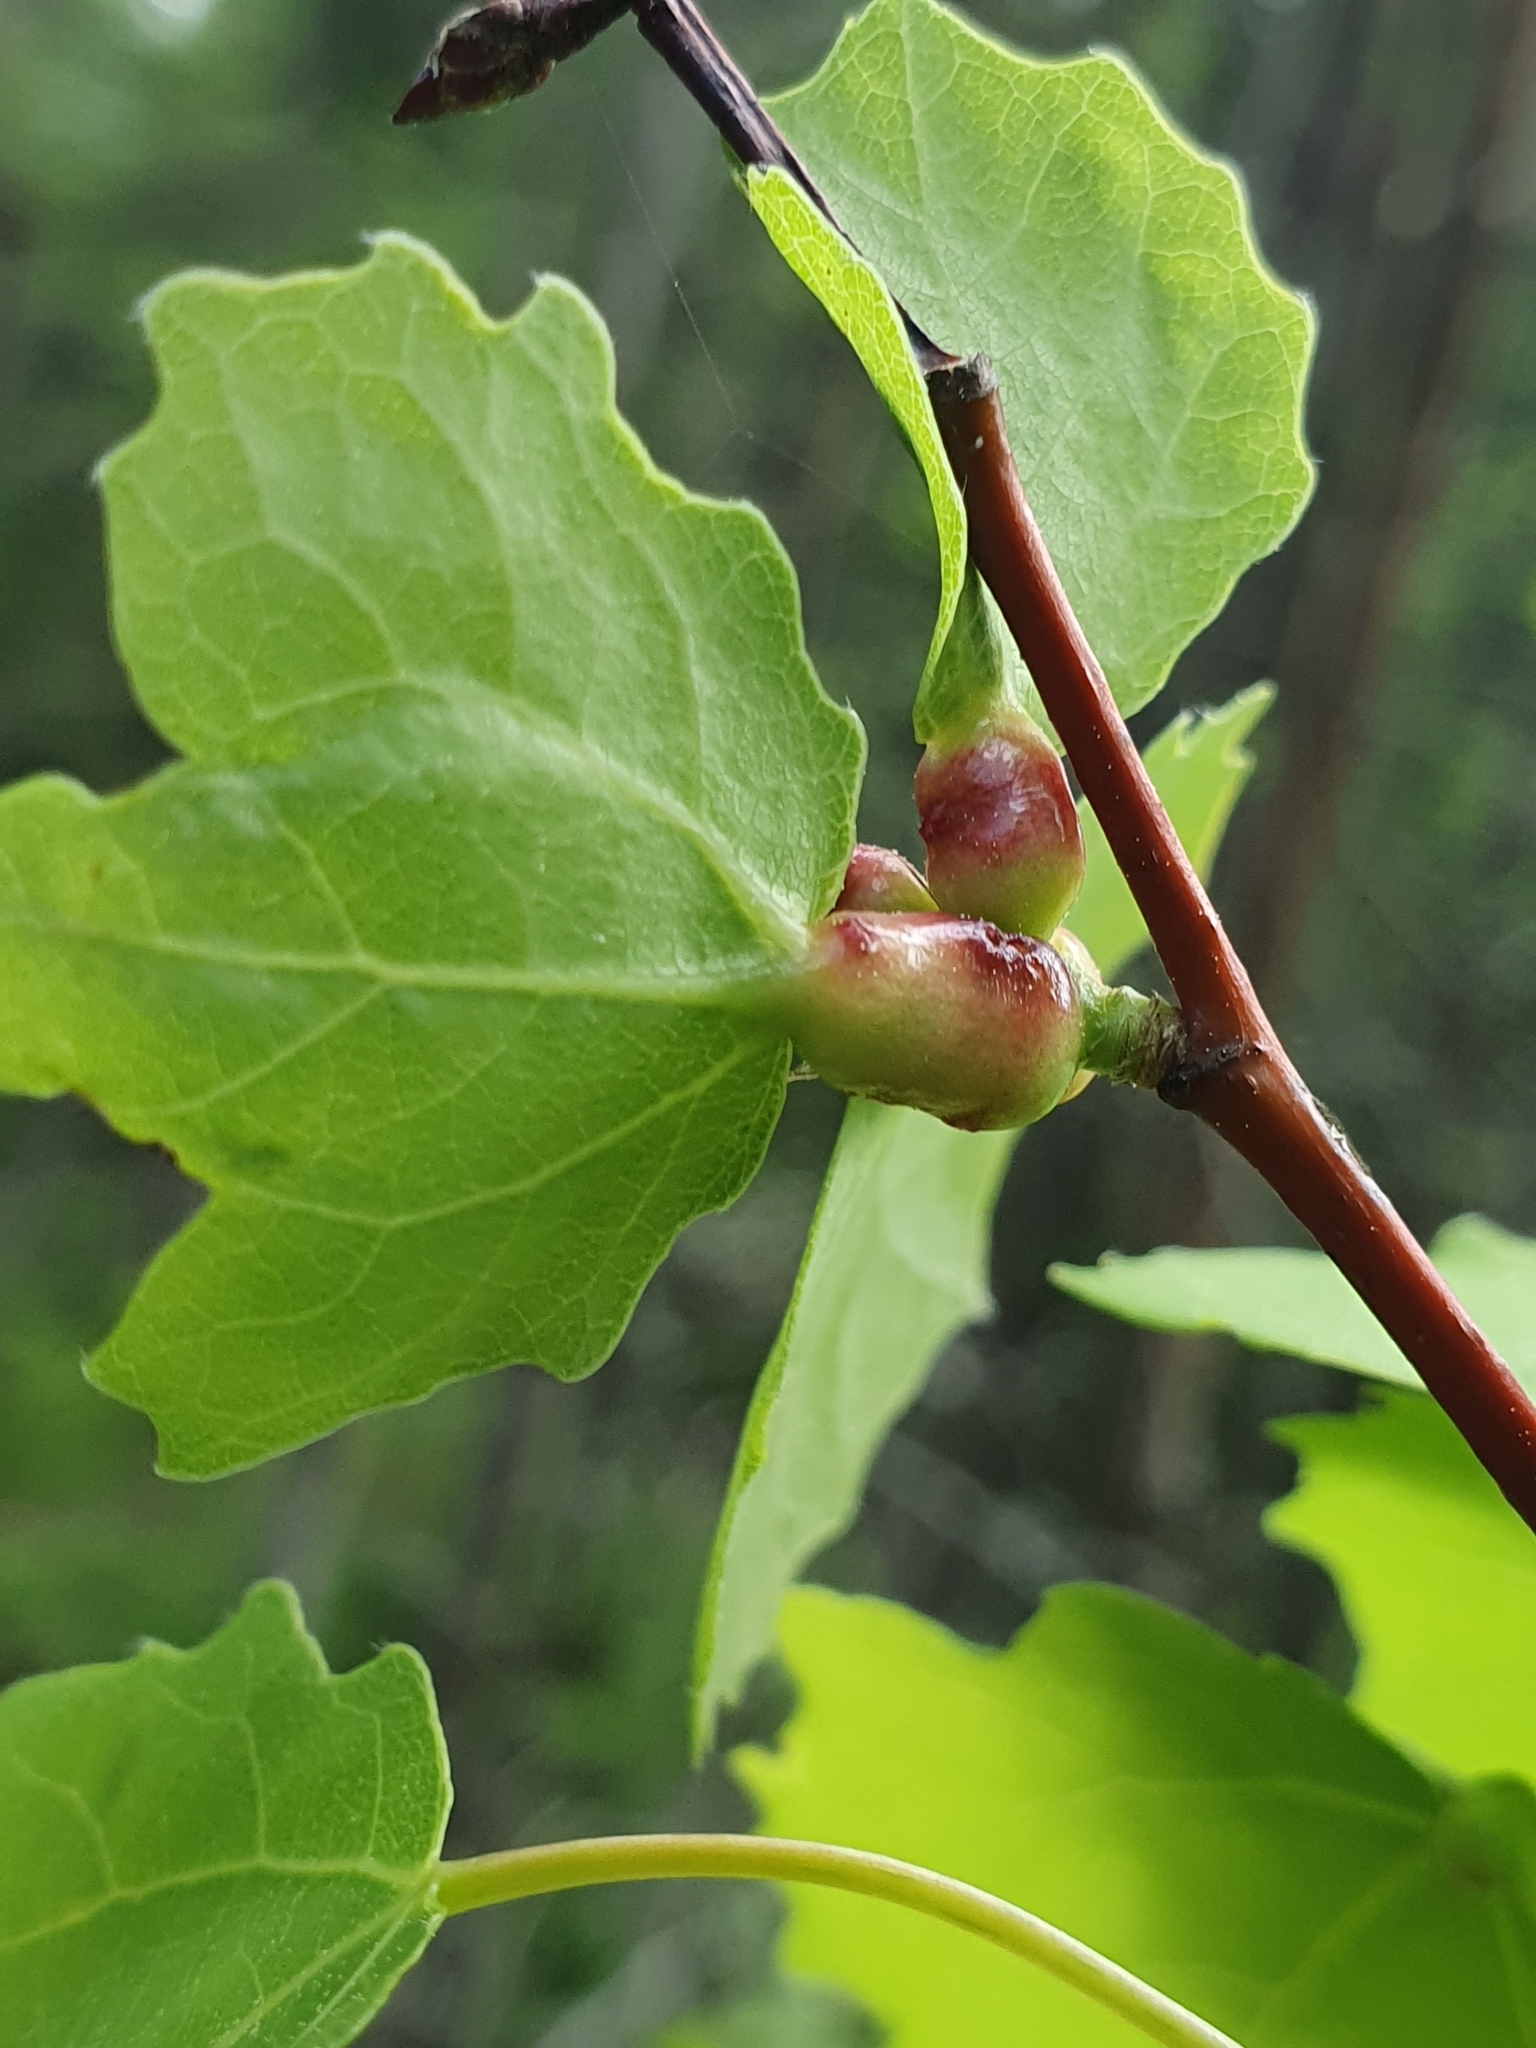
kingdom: Animalia
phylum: Arthropoda
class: Insecta
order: Diptera
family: Cecidomyiidae
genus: Contarinia
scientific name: Contarinia petioli
